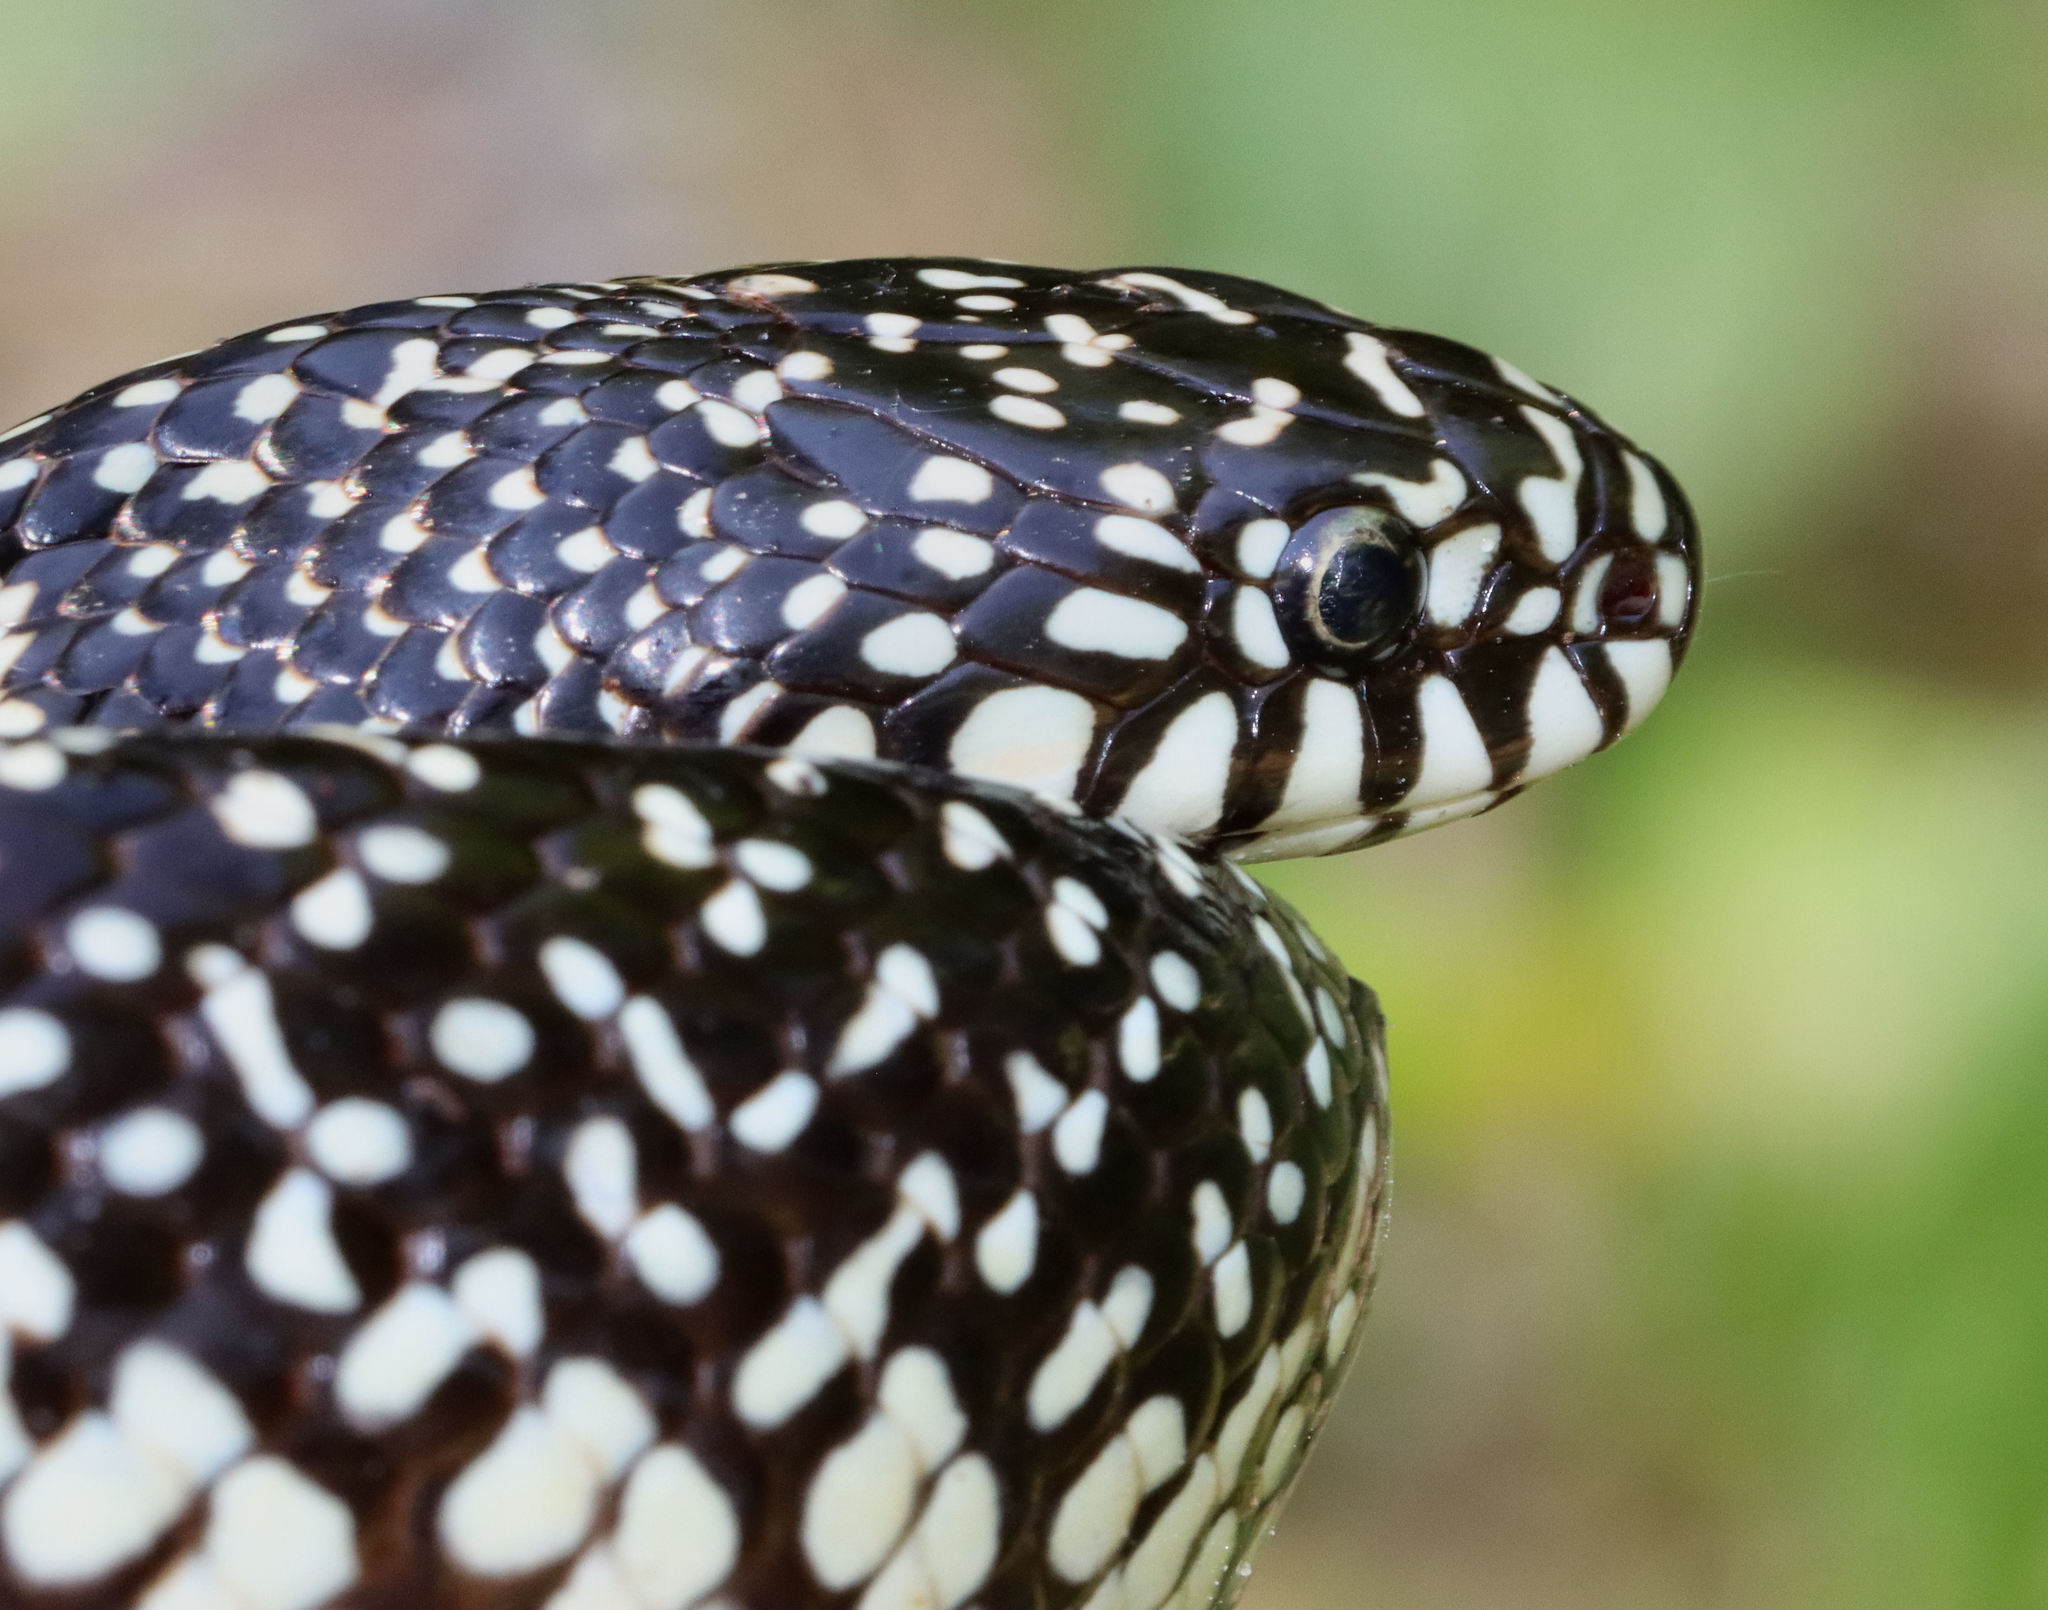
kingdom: Animalia
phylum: Chordata
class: Squamata
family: Colubridae
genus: Lampropeltis
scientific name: Lampropeltis holbrooki
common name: Speckled kingsnake
